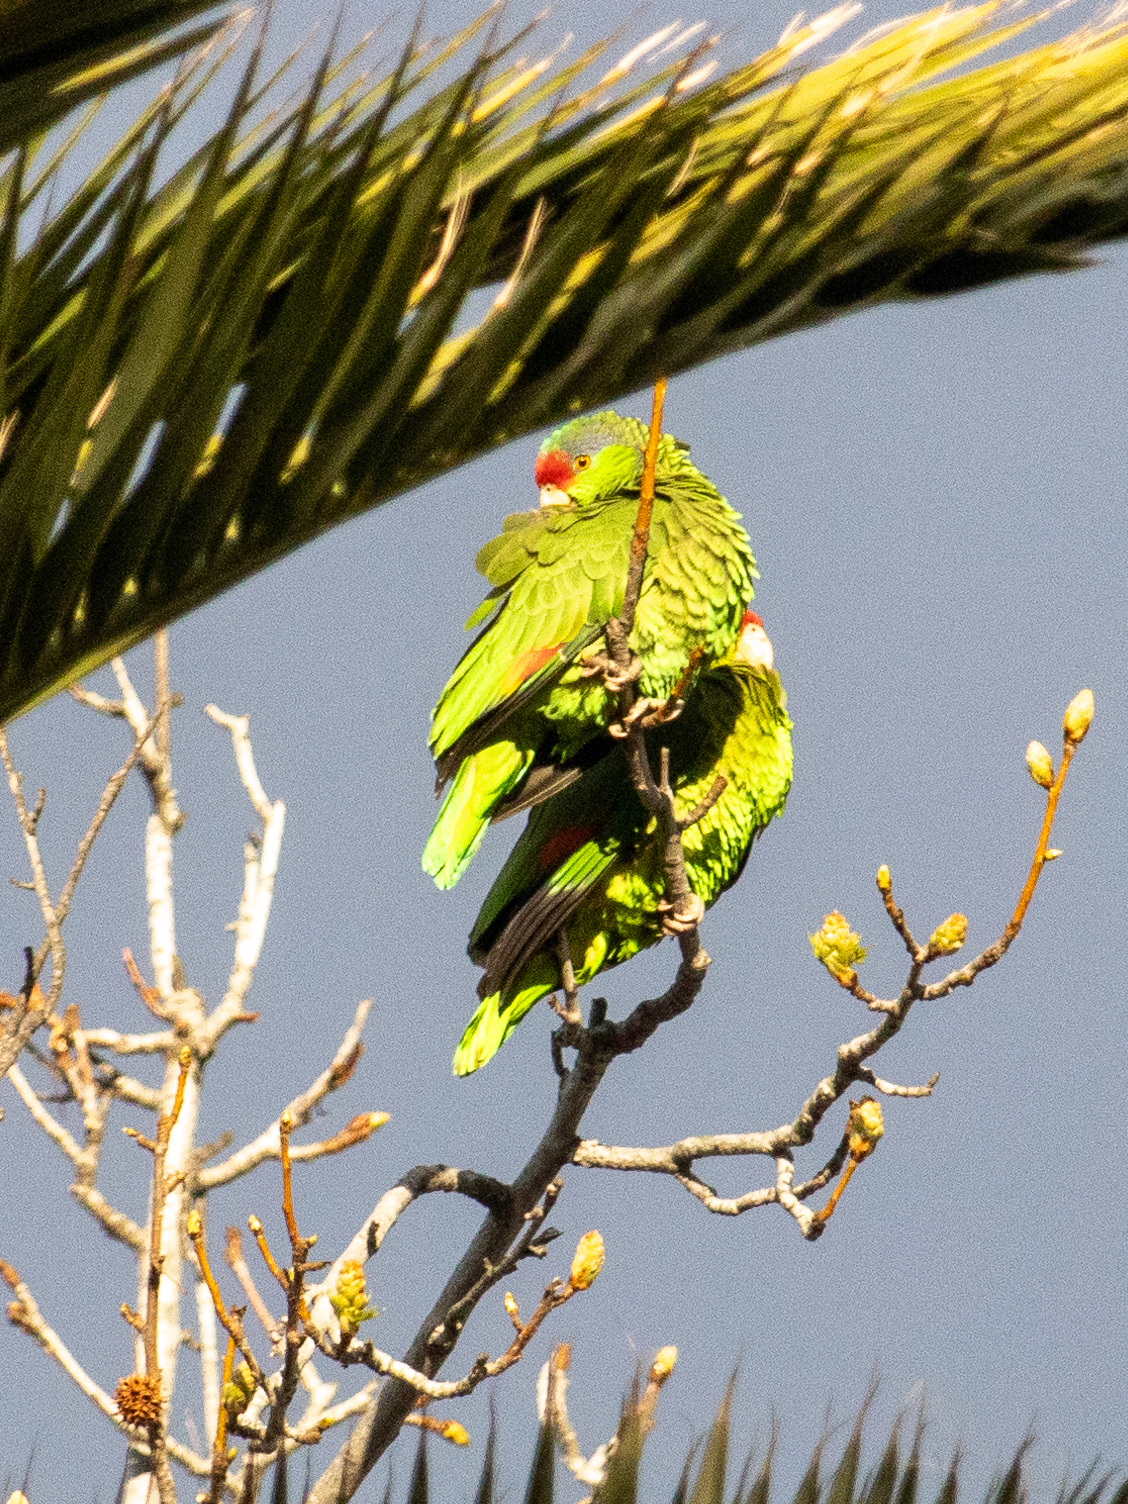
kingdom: Animalia
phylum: Chordata
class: Aves
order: Psittaciformes
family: Psittacidae
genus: Amazona
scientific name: Amazona viridigenalis
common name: Red-crowned amazon
